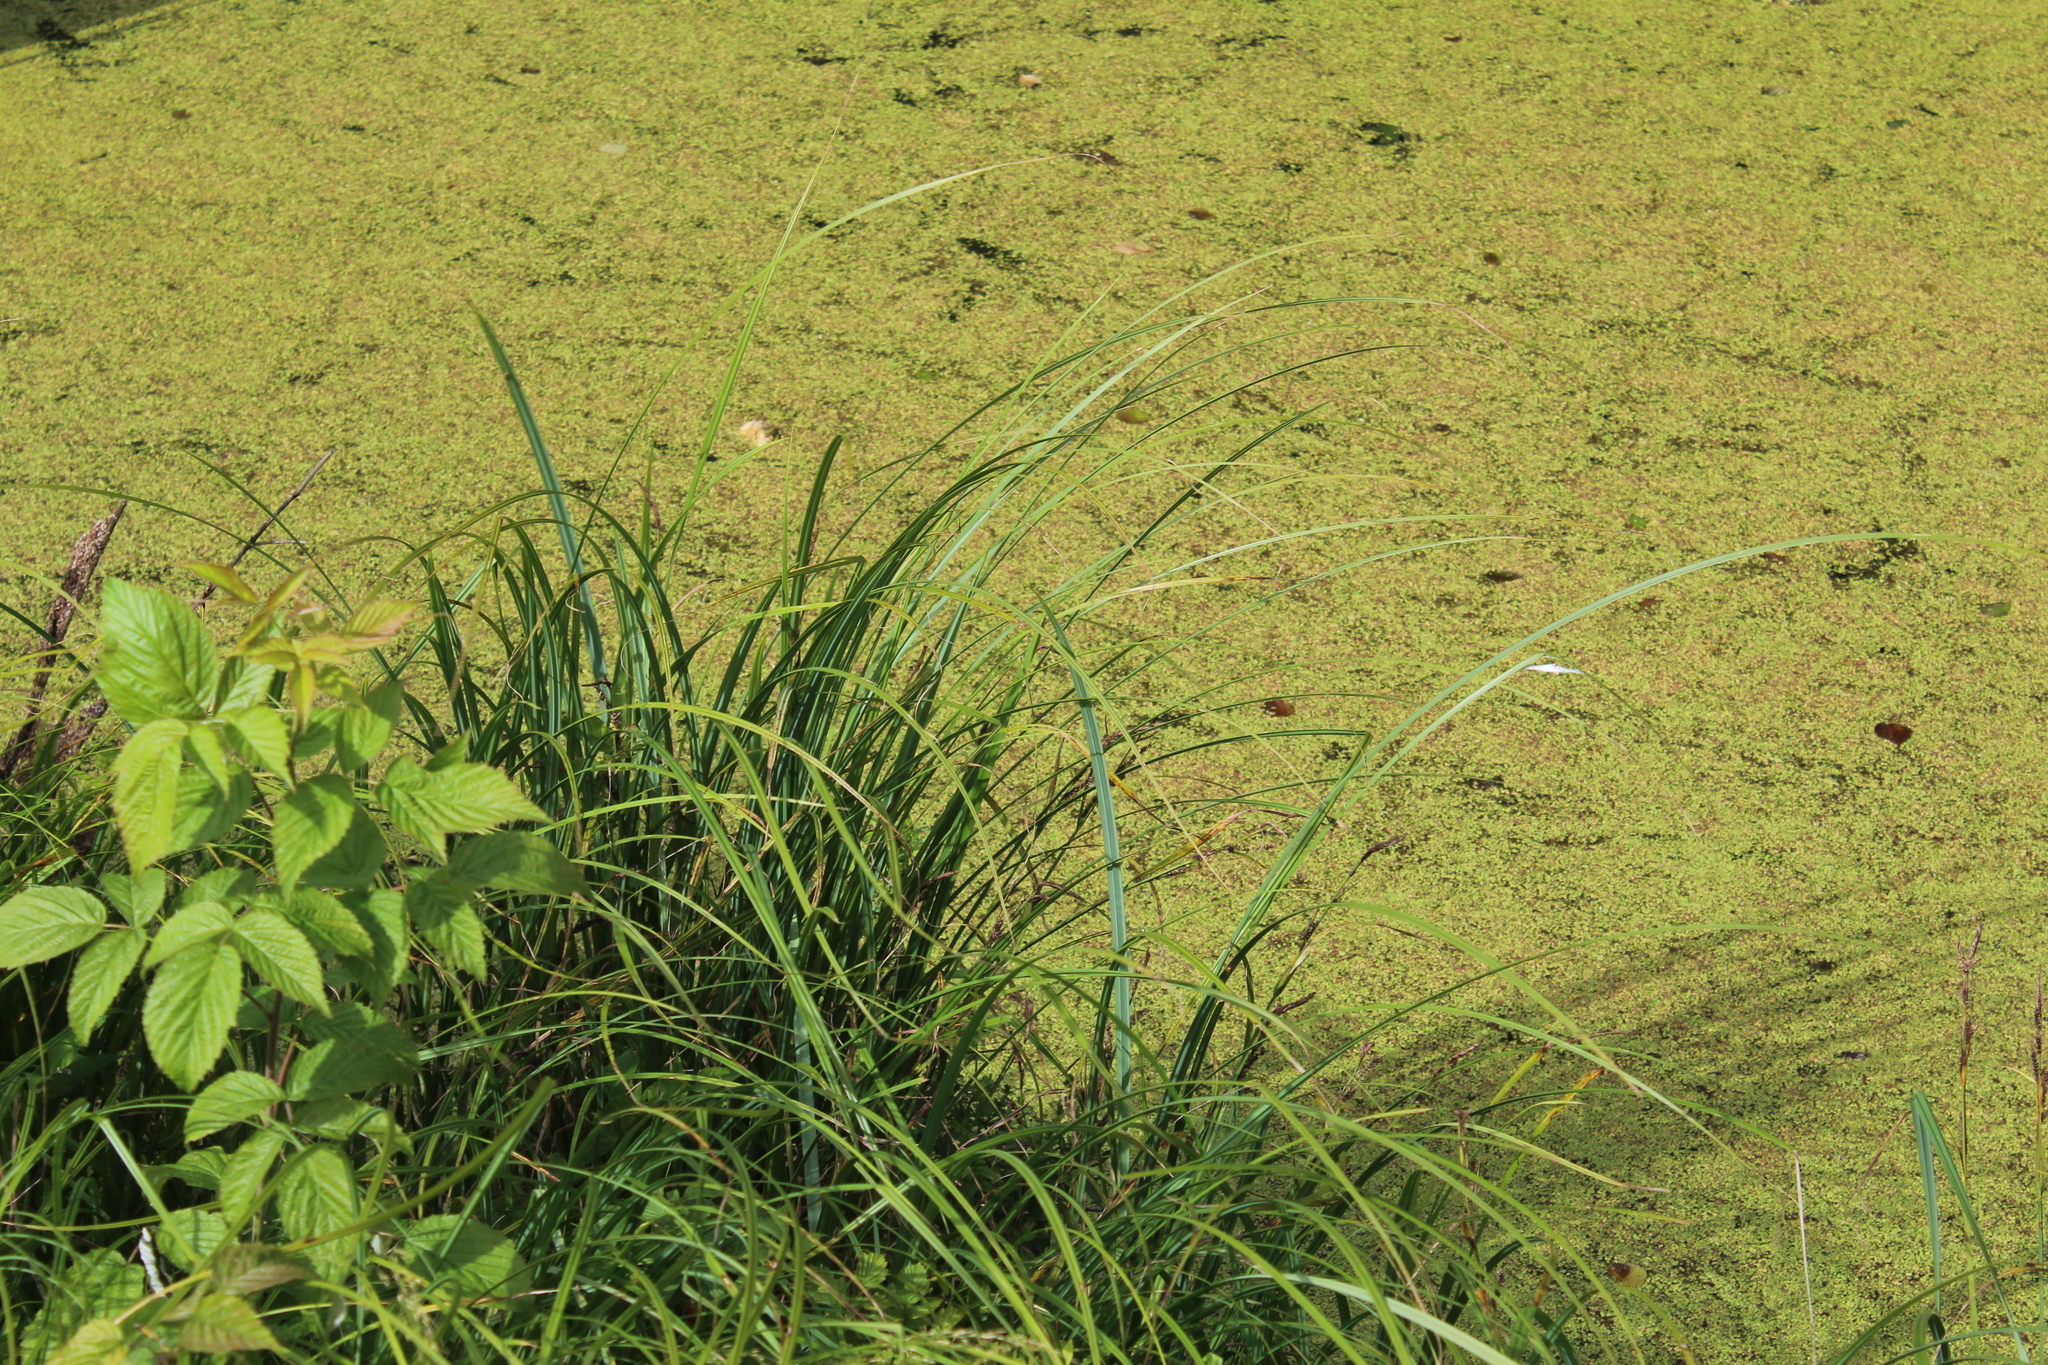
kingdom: Plantae
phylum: Tracheophyta
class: Liliopsida
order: Poales
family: Cyperaceae
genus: Carex
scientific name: Carex acuta
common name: Slender tufted-sedge
